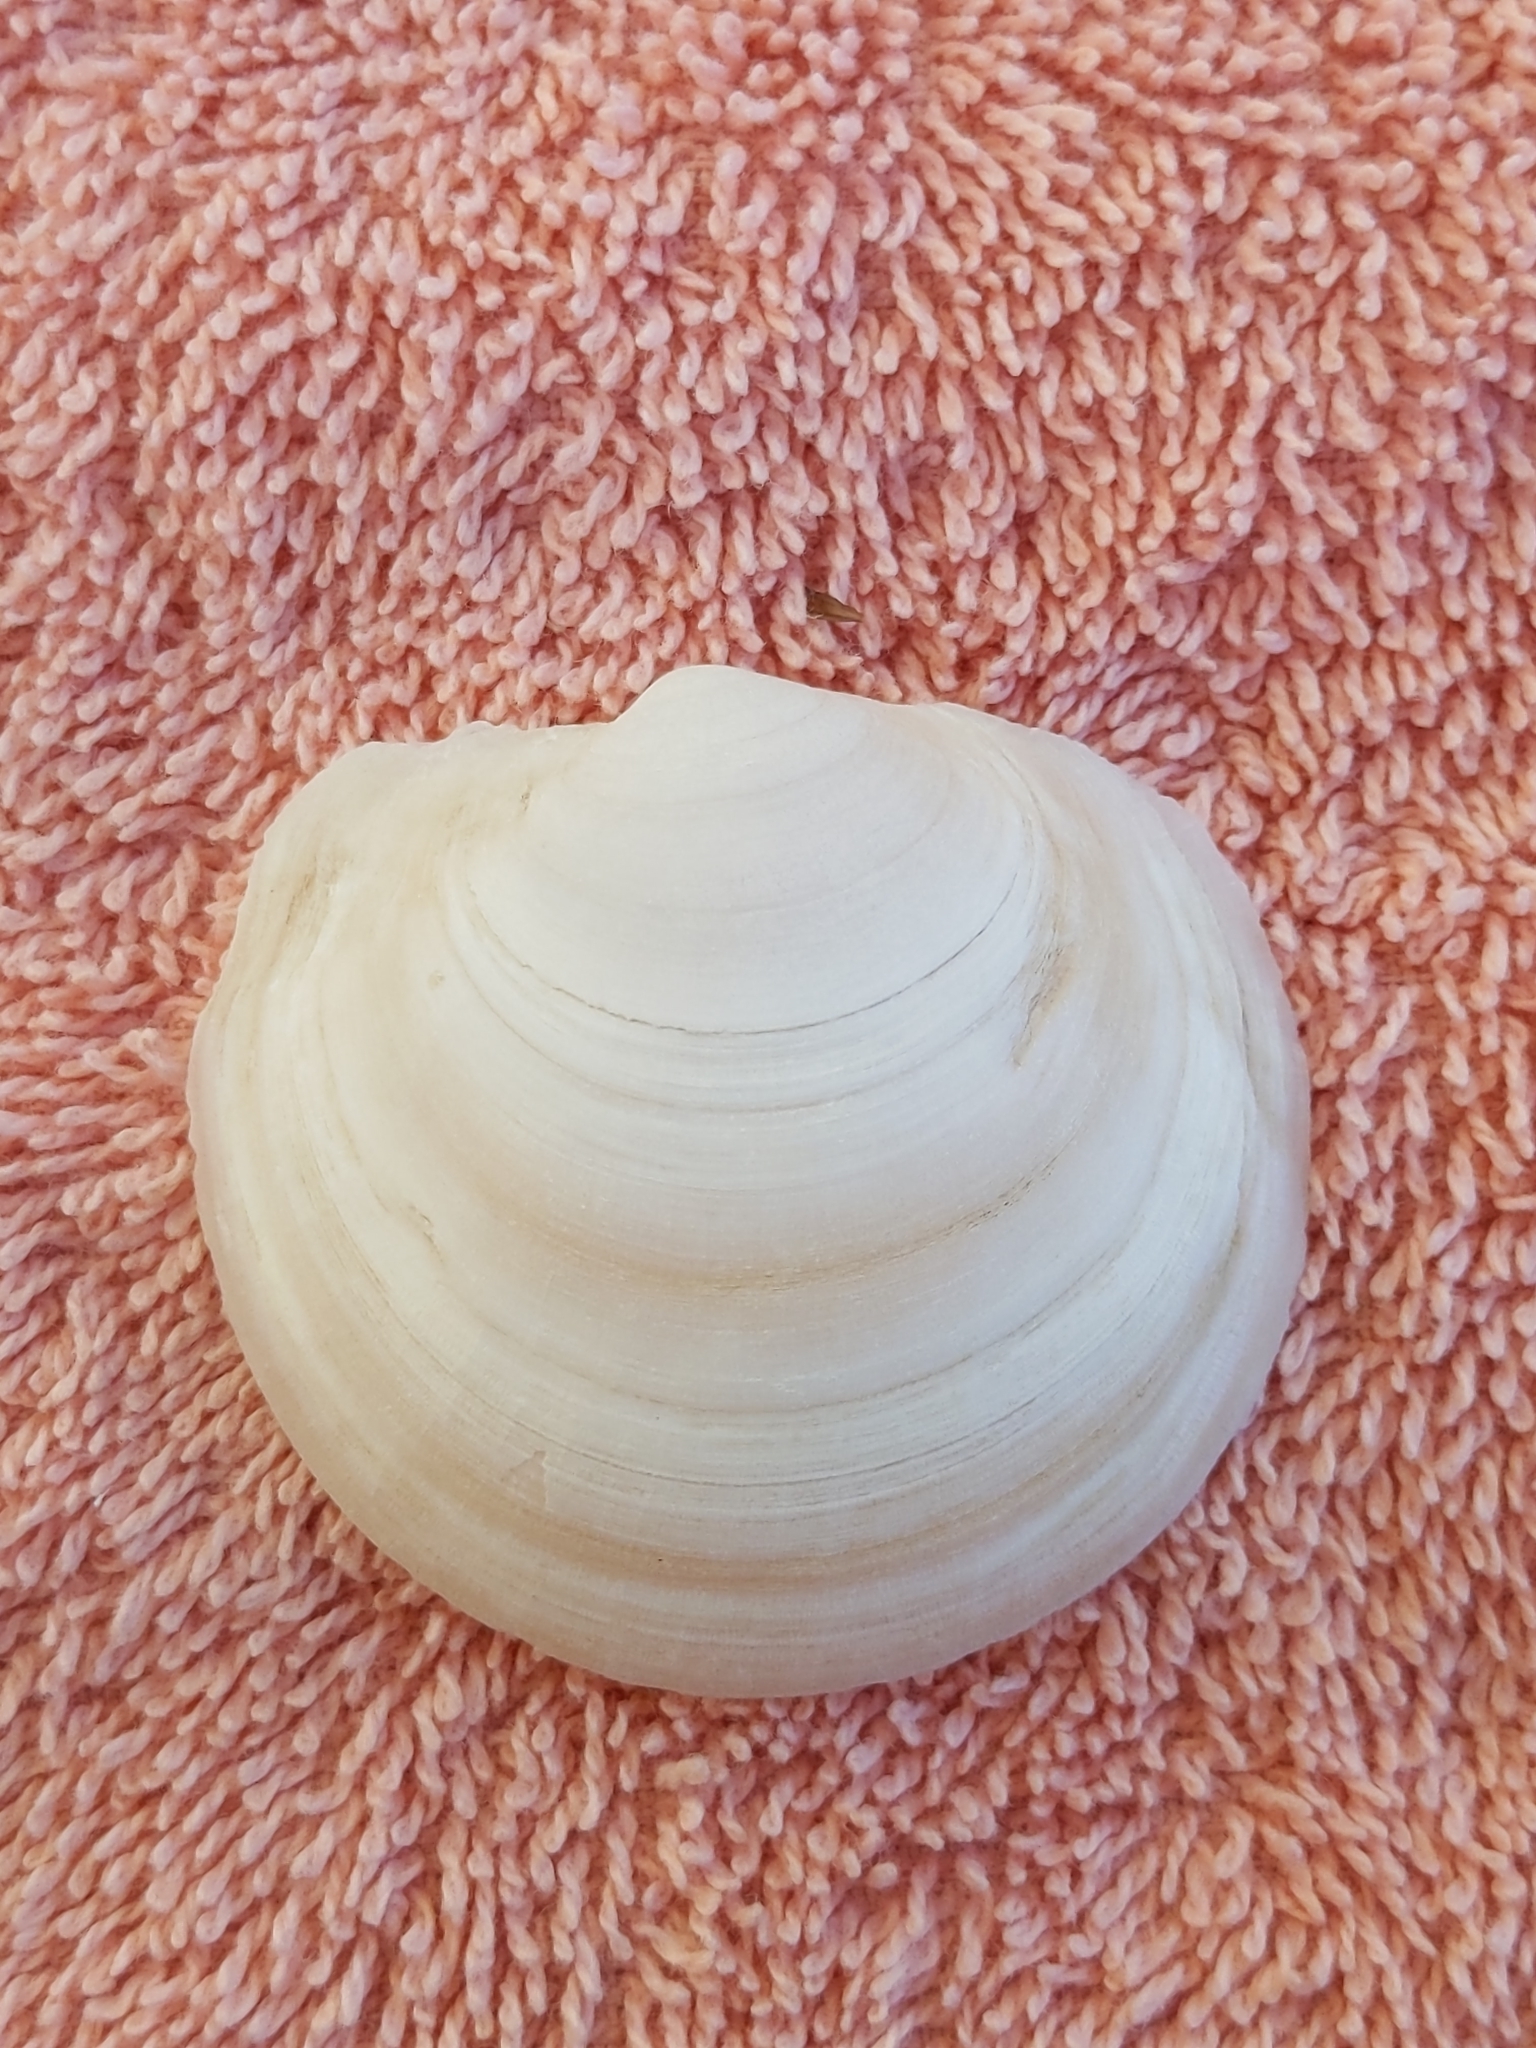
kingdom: Animalia
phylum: Mollusca
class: Bivalvia
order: Lucinida
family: Lucinidae
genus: Anodontia
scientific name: Anodontia alba
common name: Buttercup lucine
